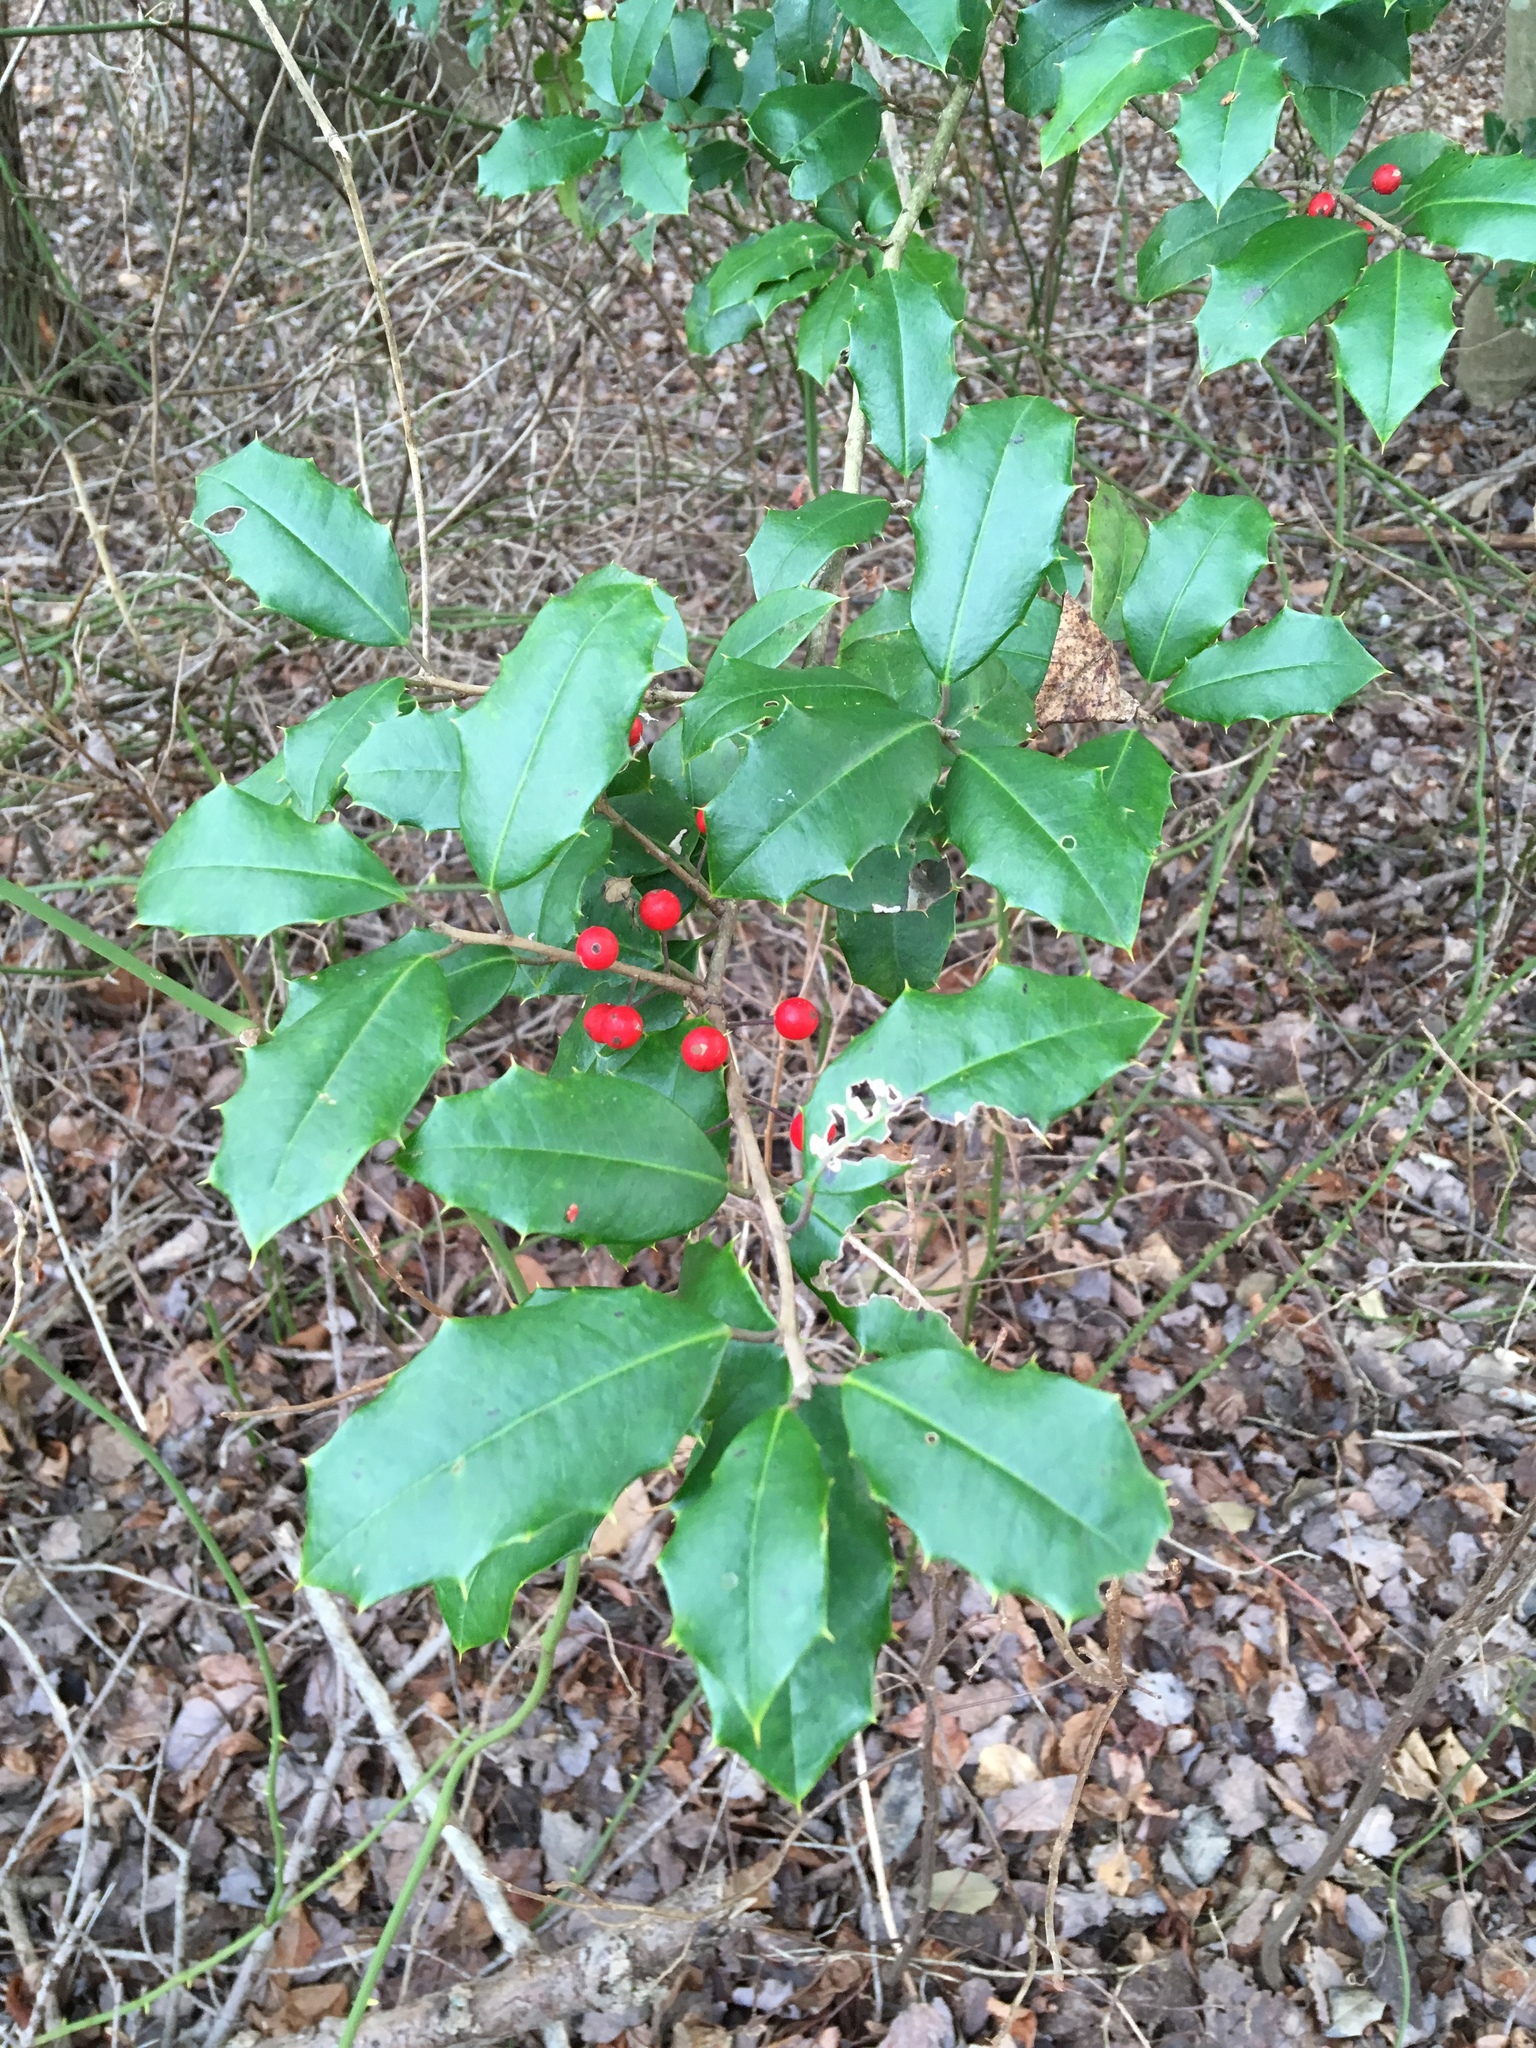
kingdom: Plantae
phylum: Tracheophyta
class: Magnoliopsida
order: Aquifoliales
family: Aquifoliaceae
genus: Ilex
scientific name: Ilex opaca
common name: American holly
